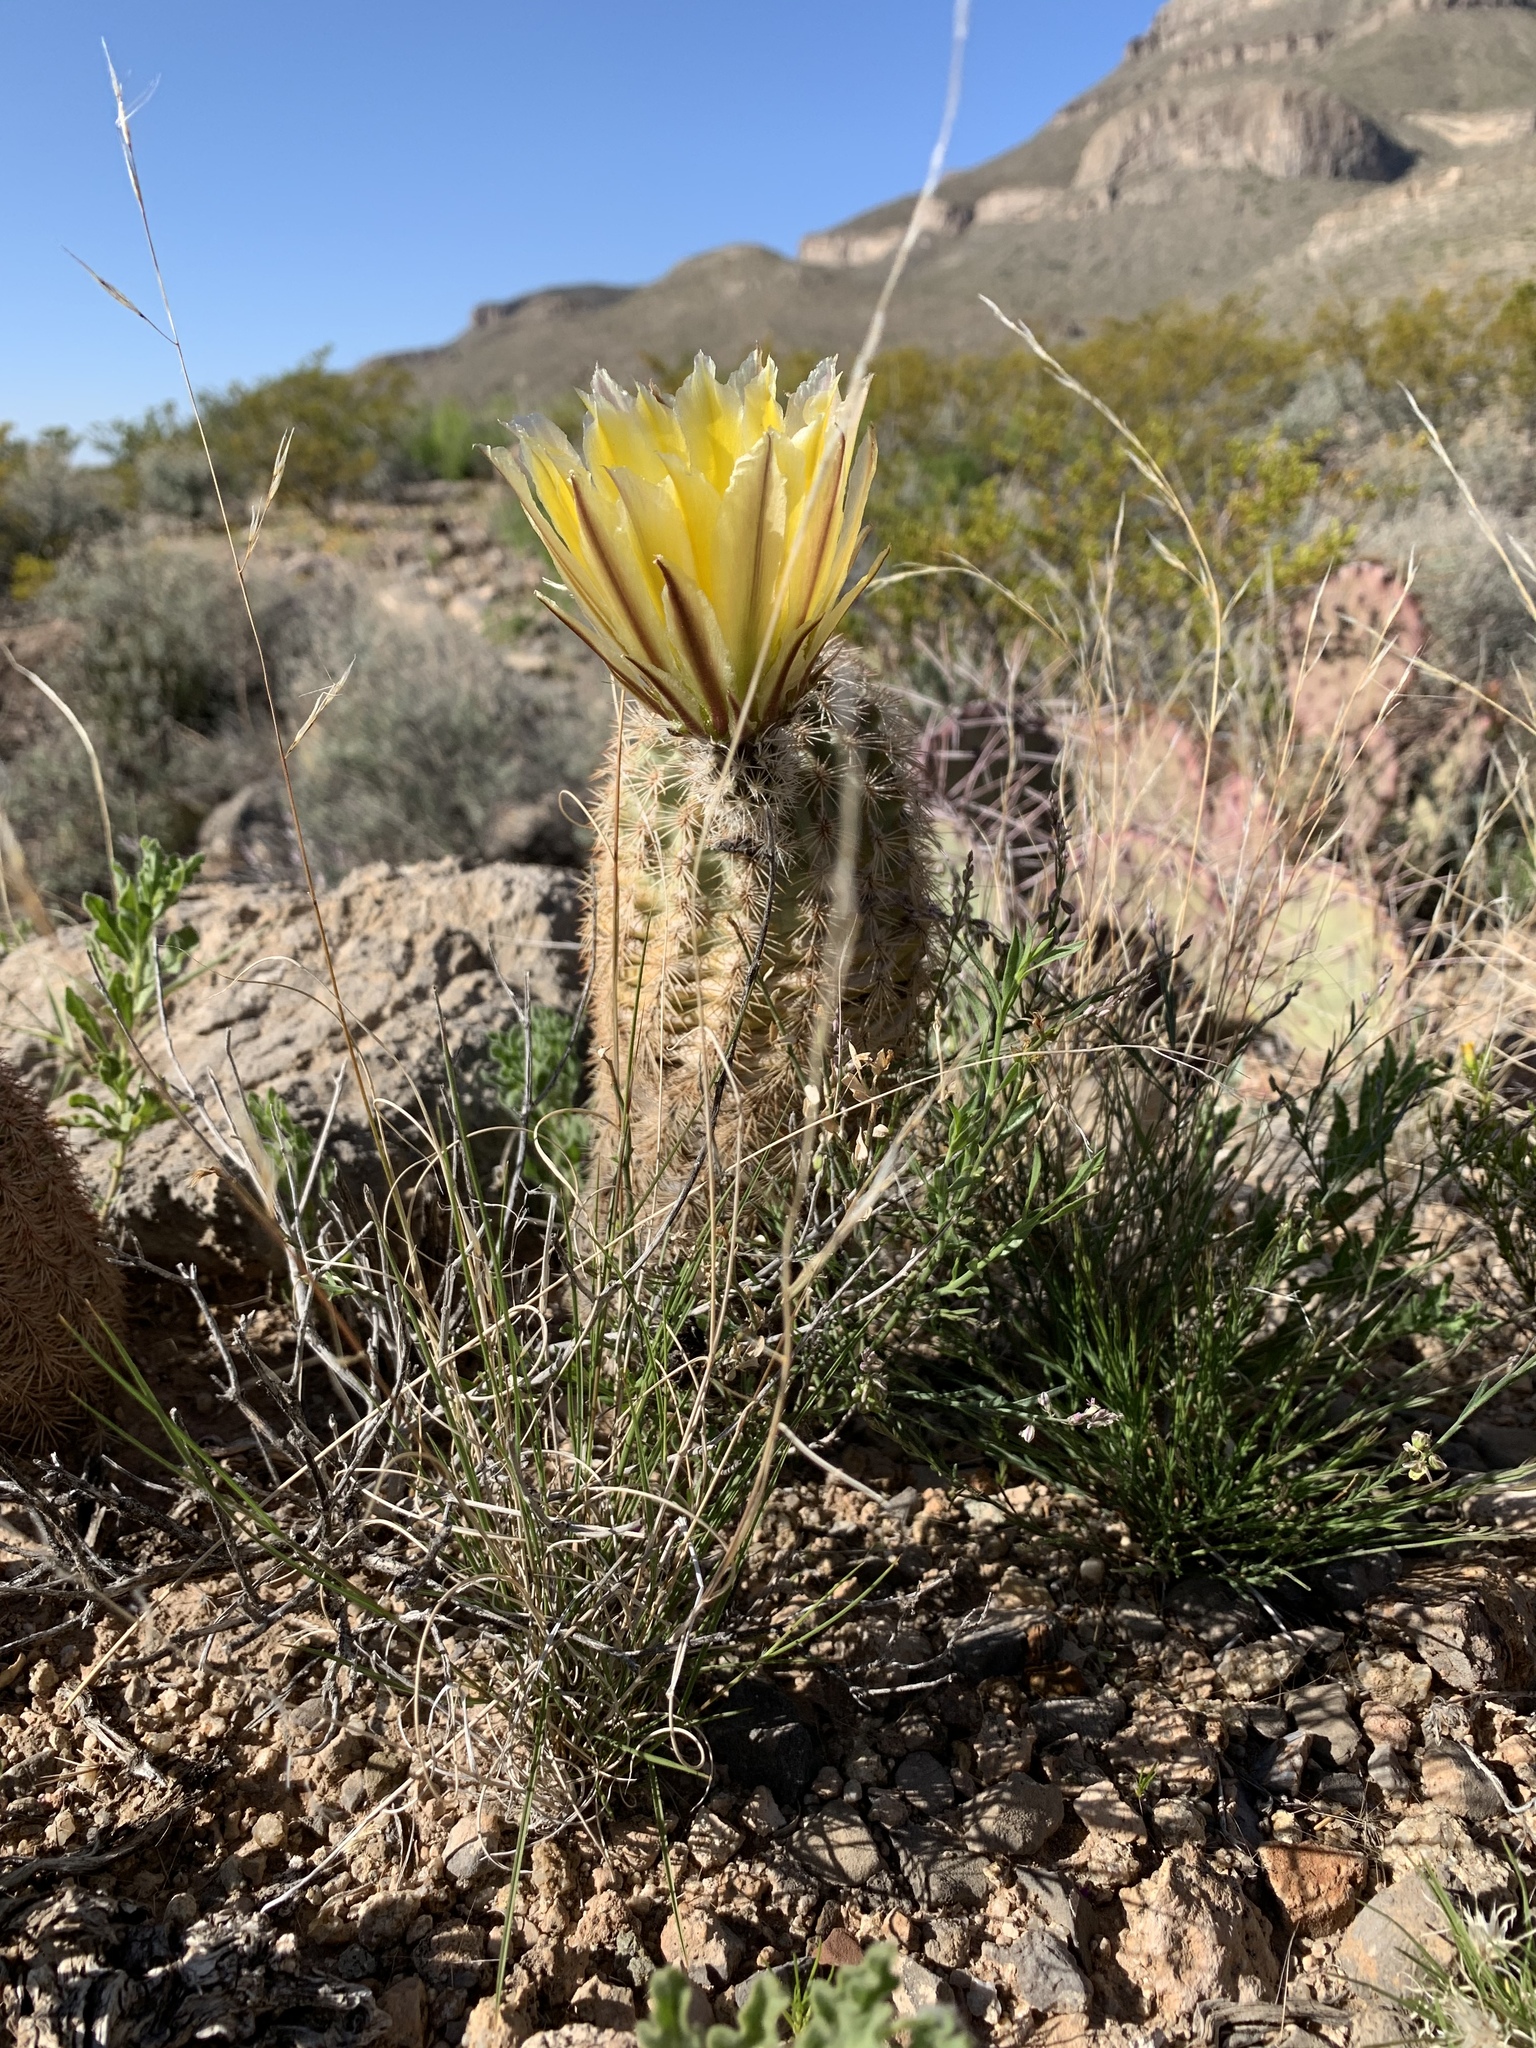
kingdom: Plantae
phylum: Tracheophyta
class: Magnoliopsida
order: Caryophyllales
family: Cactaceae
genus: Echinocereus
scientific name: Echinocereus dasyacanthus
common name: Spiny hedgehog cactus
